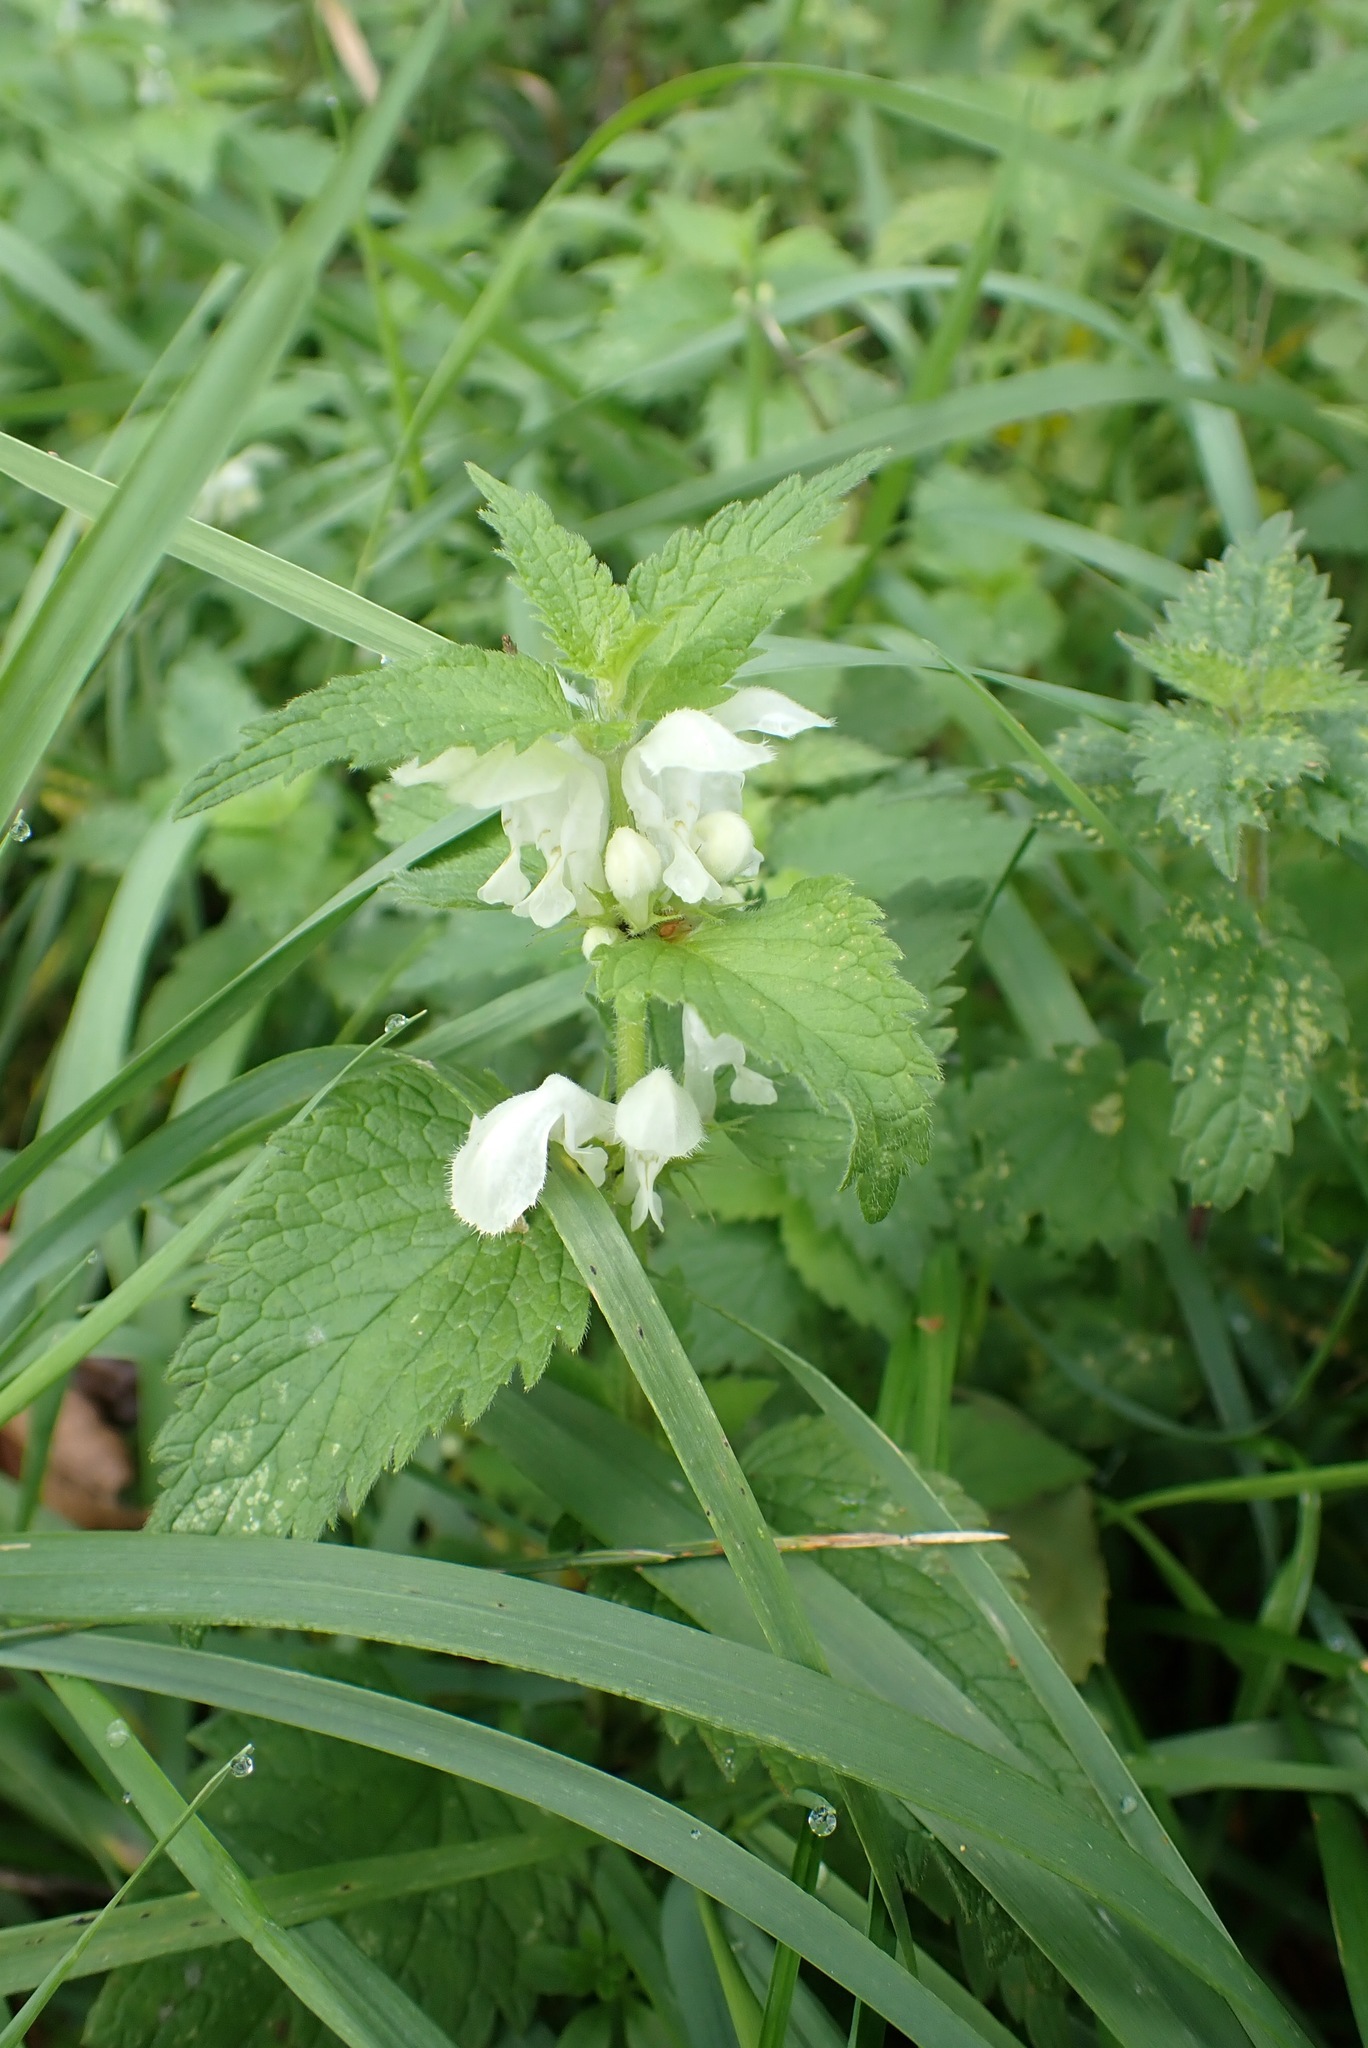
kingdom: Plantae
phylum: Tracheophyta
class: Magnoliopsida
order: Lamiales
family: Lamiaceae
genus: Lamium
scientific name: Lamium album
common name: White dead-nettle
